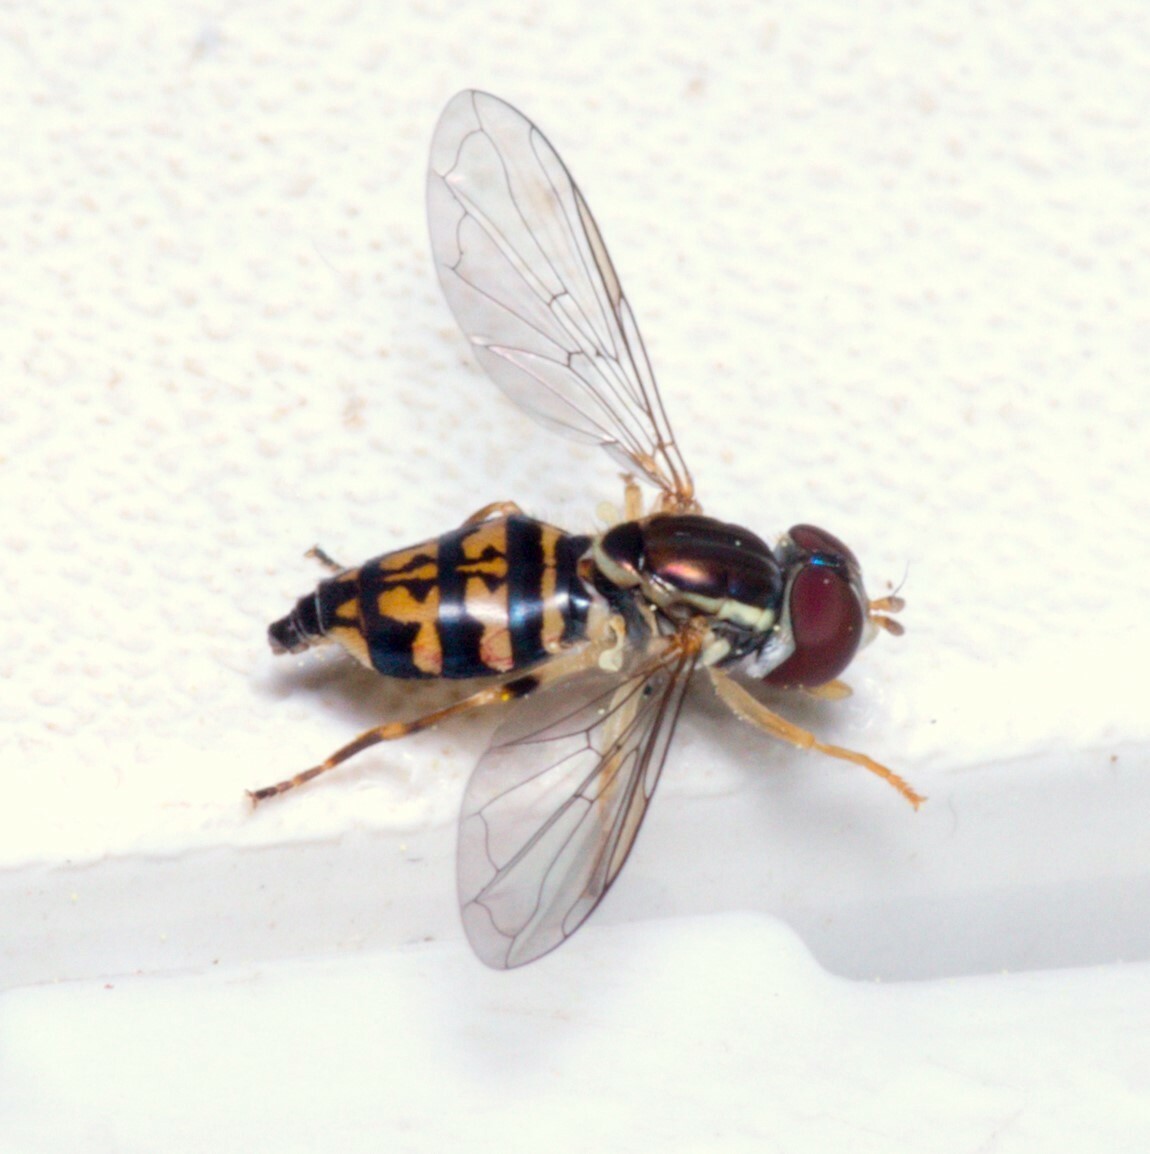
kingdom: Animalia
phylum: Arthropoda
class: Insecta
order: Diptera
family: Syrphidae
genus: Toxomerus
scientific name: Toxomerus geminatus
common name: Eastern calligrapher
